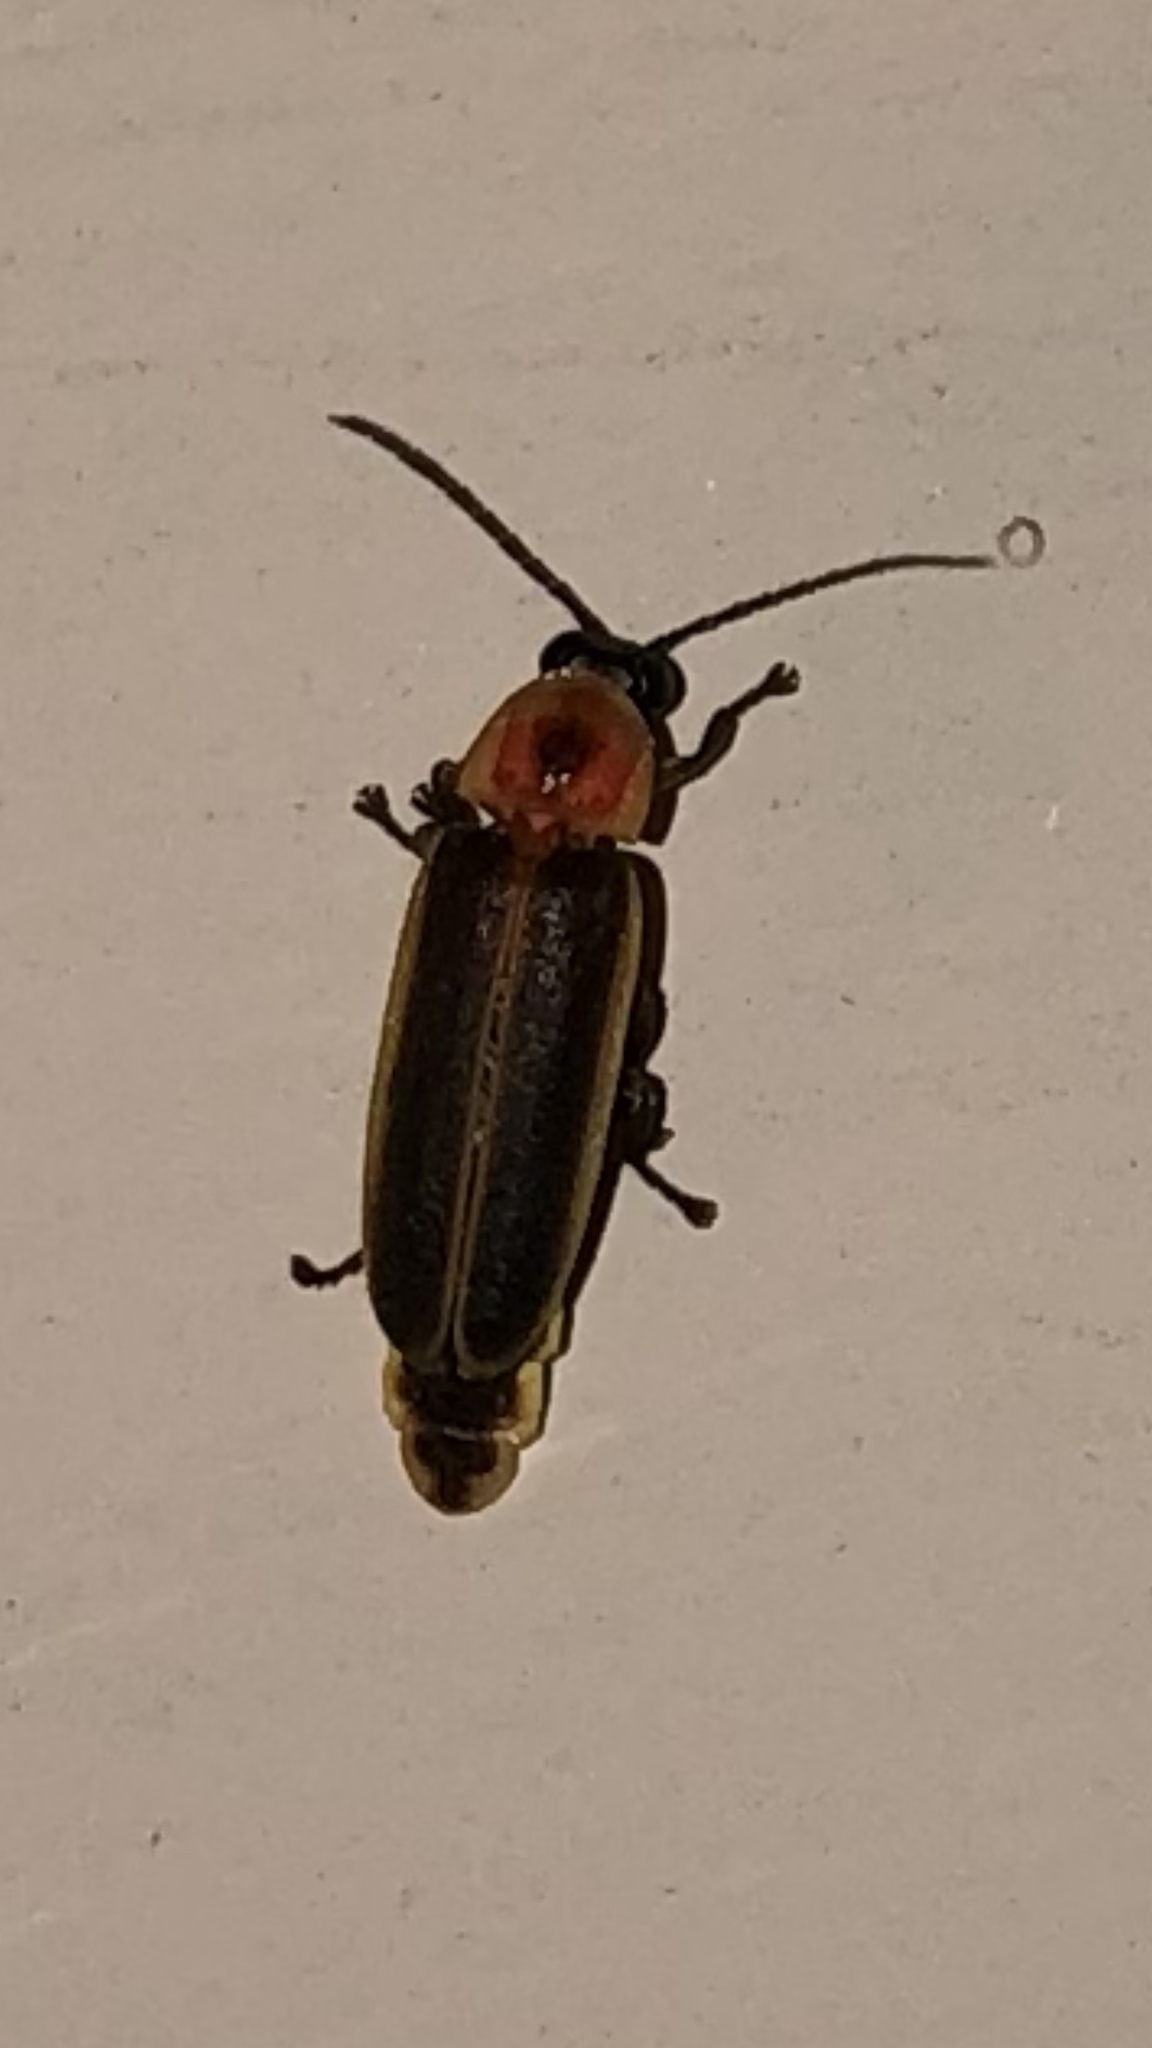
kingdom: Animalia
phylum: Arthropoda
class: Insecta
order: Coleoptera
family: Lampyridae
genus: Photinus
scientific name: Photinus pyralis
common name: Big dipper firefly
